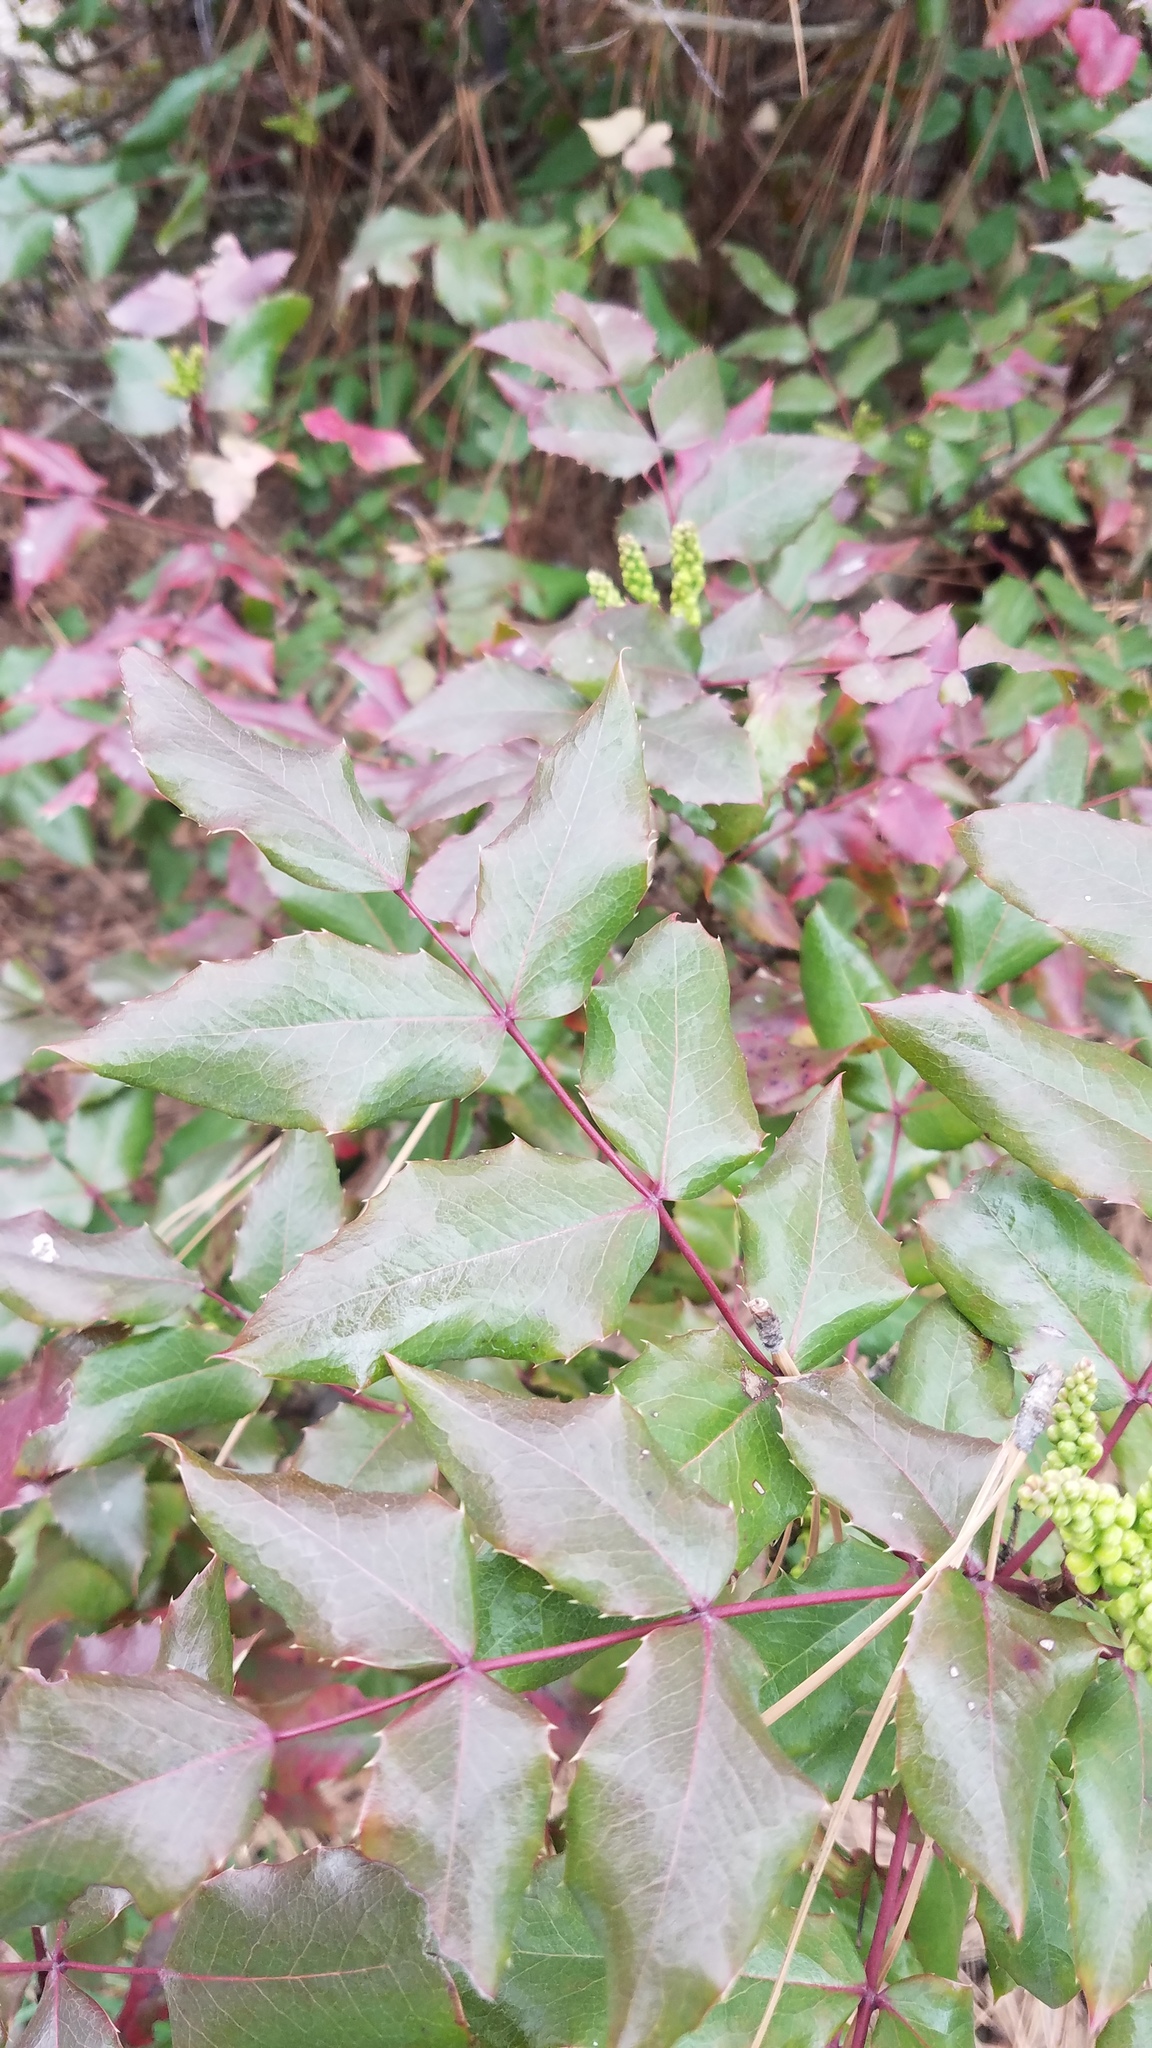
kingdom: Plantae
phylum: Tracheophyta
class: Magnoliopsida
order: Ranunculales
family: Berberidaceae
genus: Mahonia
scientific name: Mahonia aquifolium
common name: Oregon-grape
